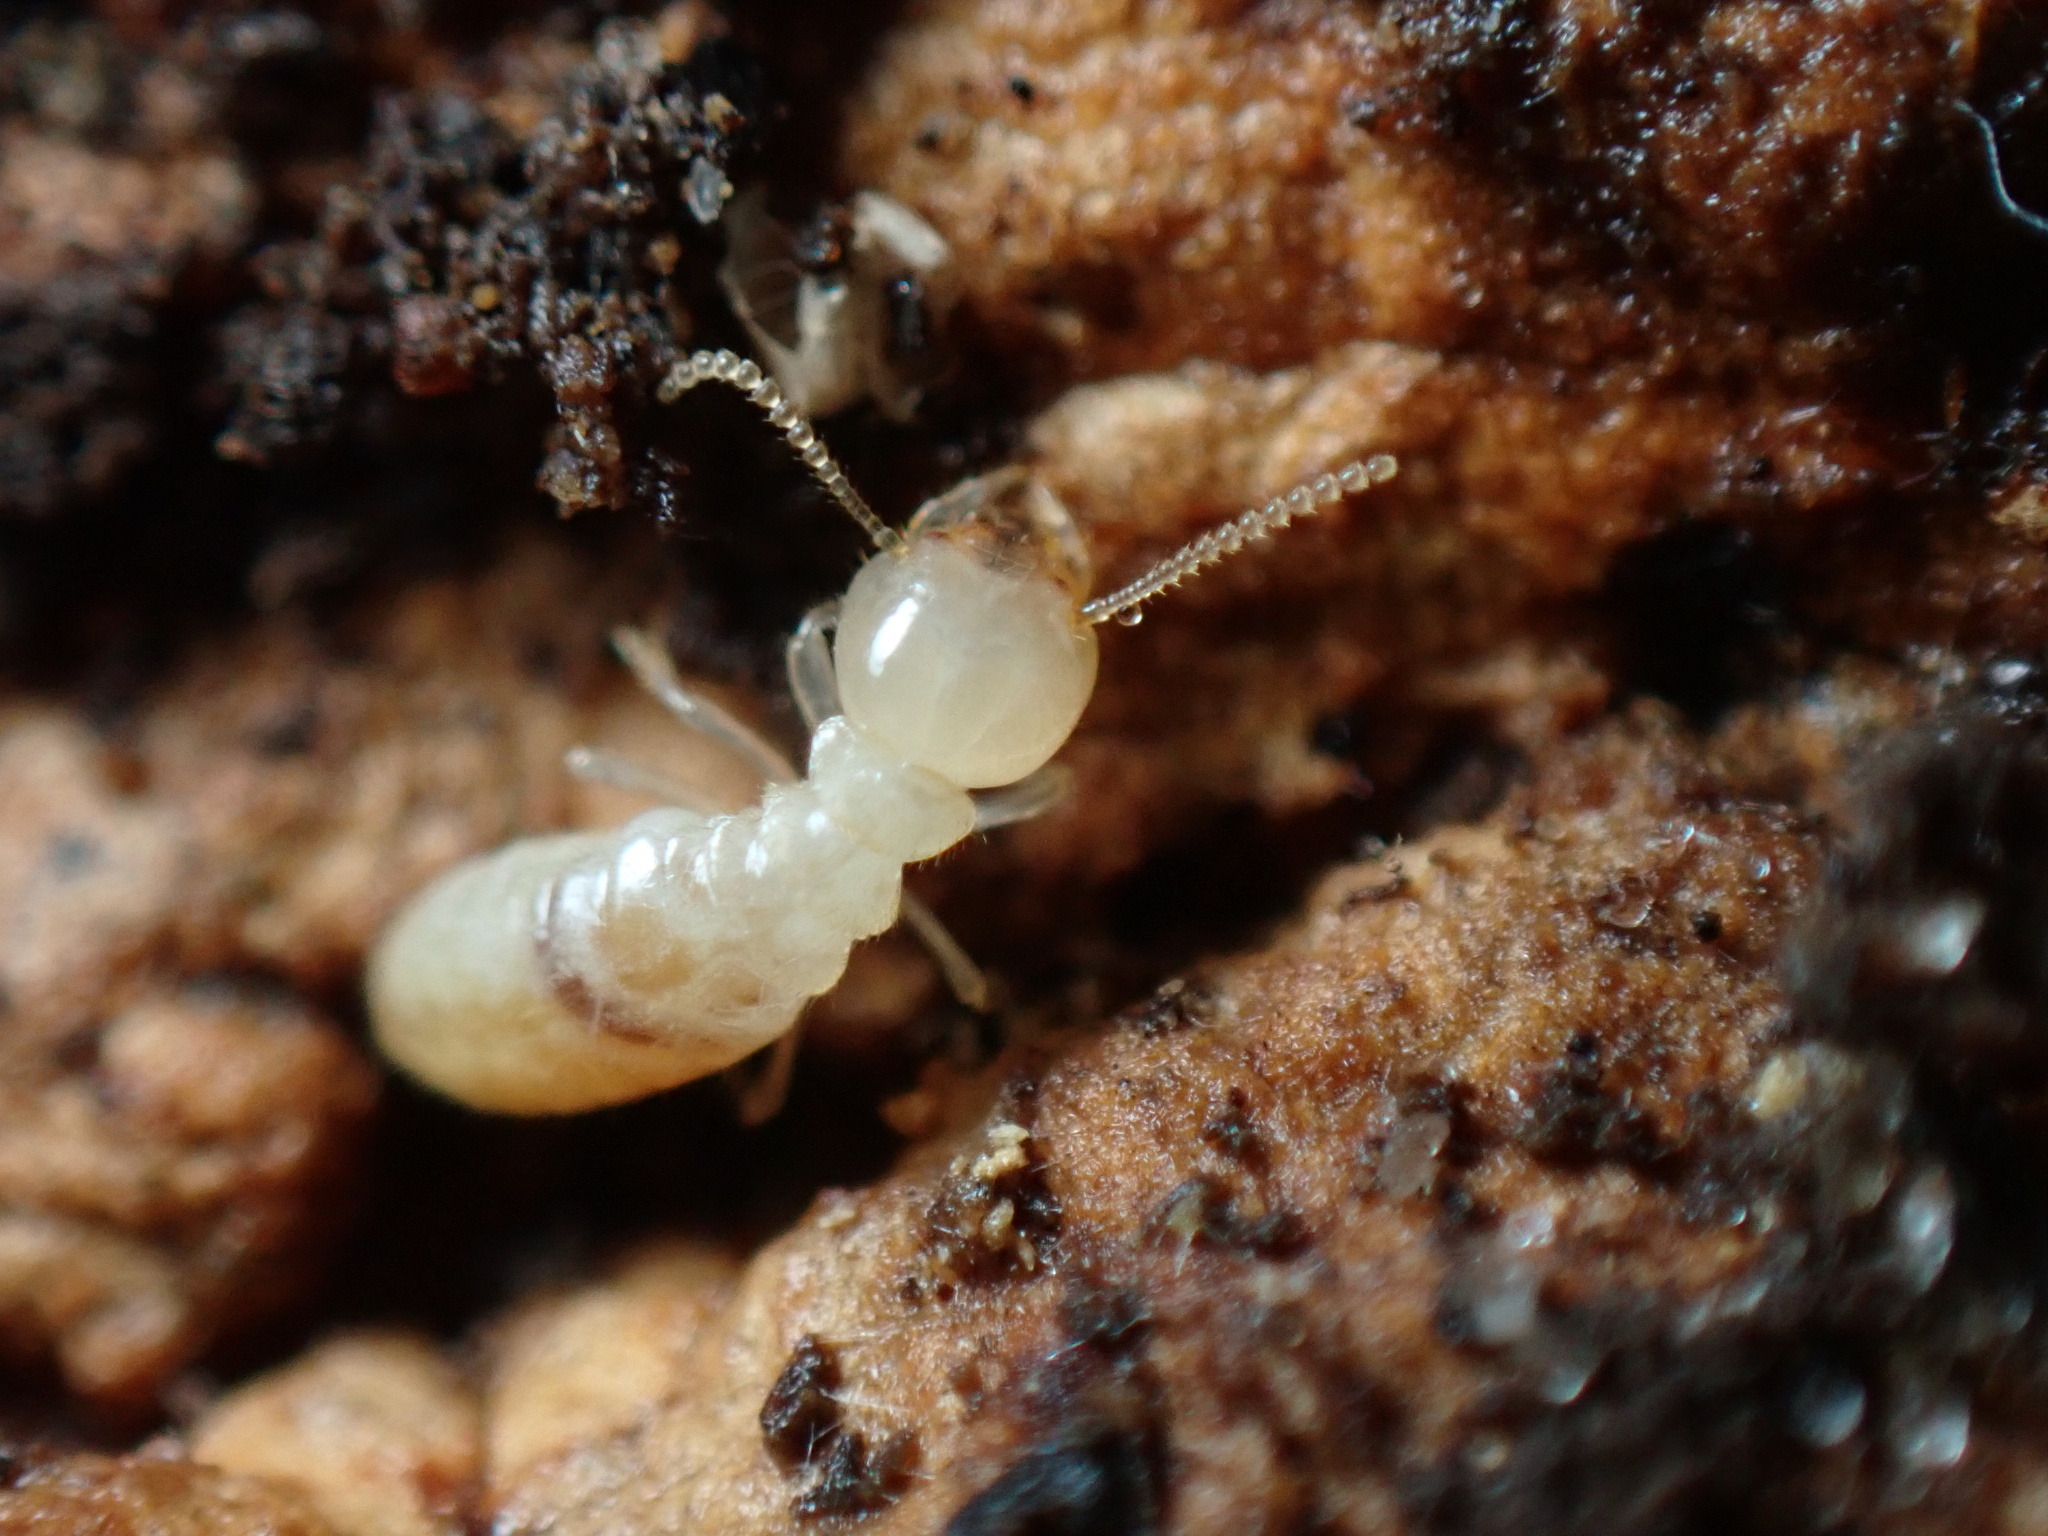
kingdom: Animalia
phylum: Arthropoda
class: Insecta
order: Blattodea
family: Rhinotermitidae
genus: Reticulitermes
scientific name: Reticulitermes flavipes
